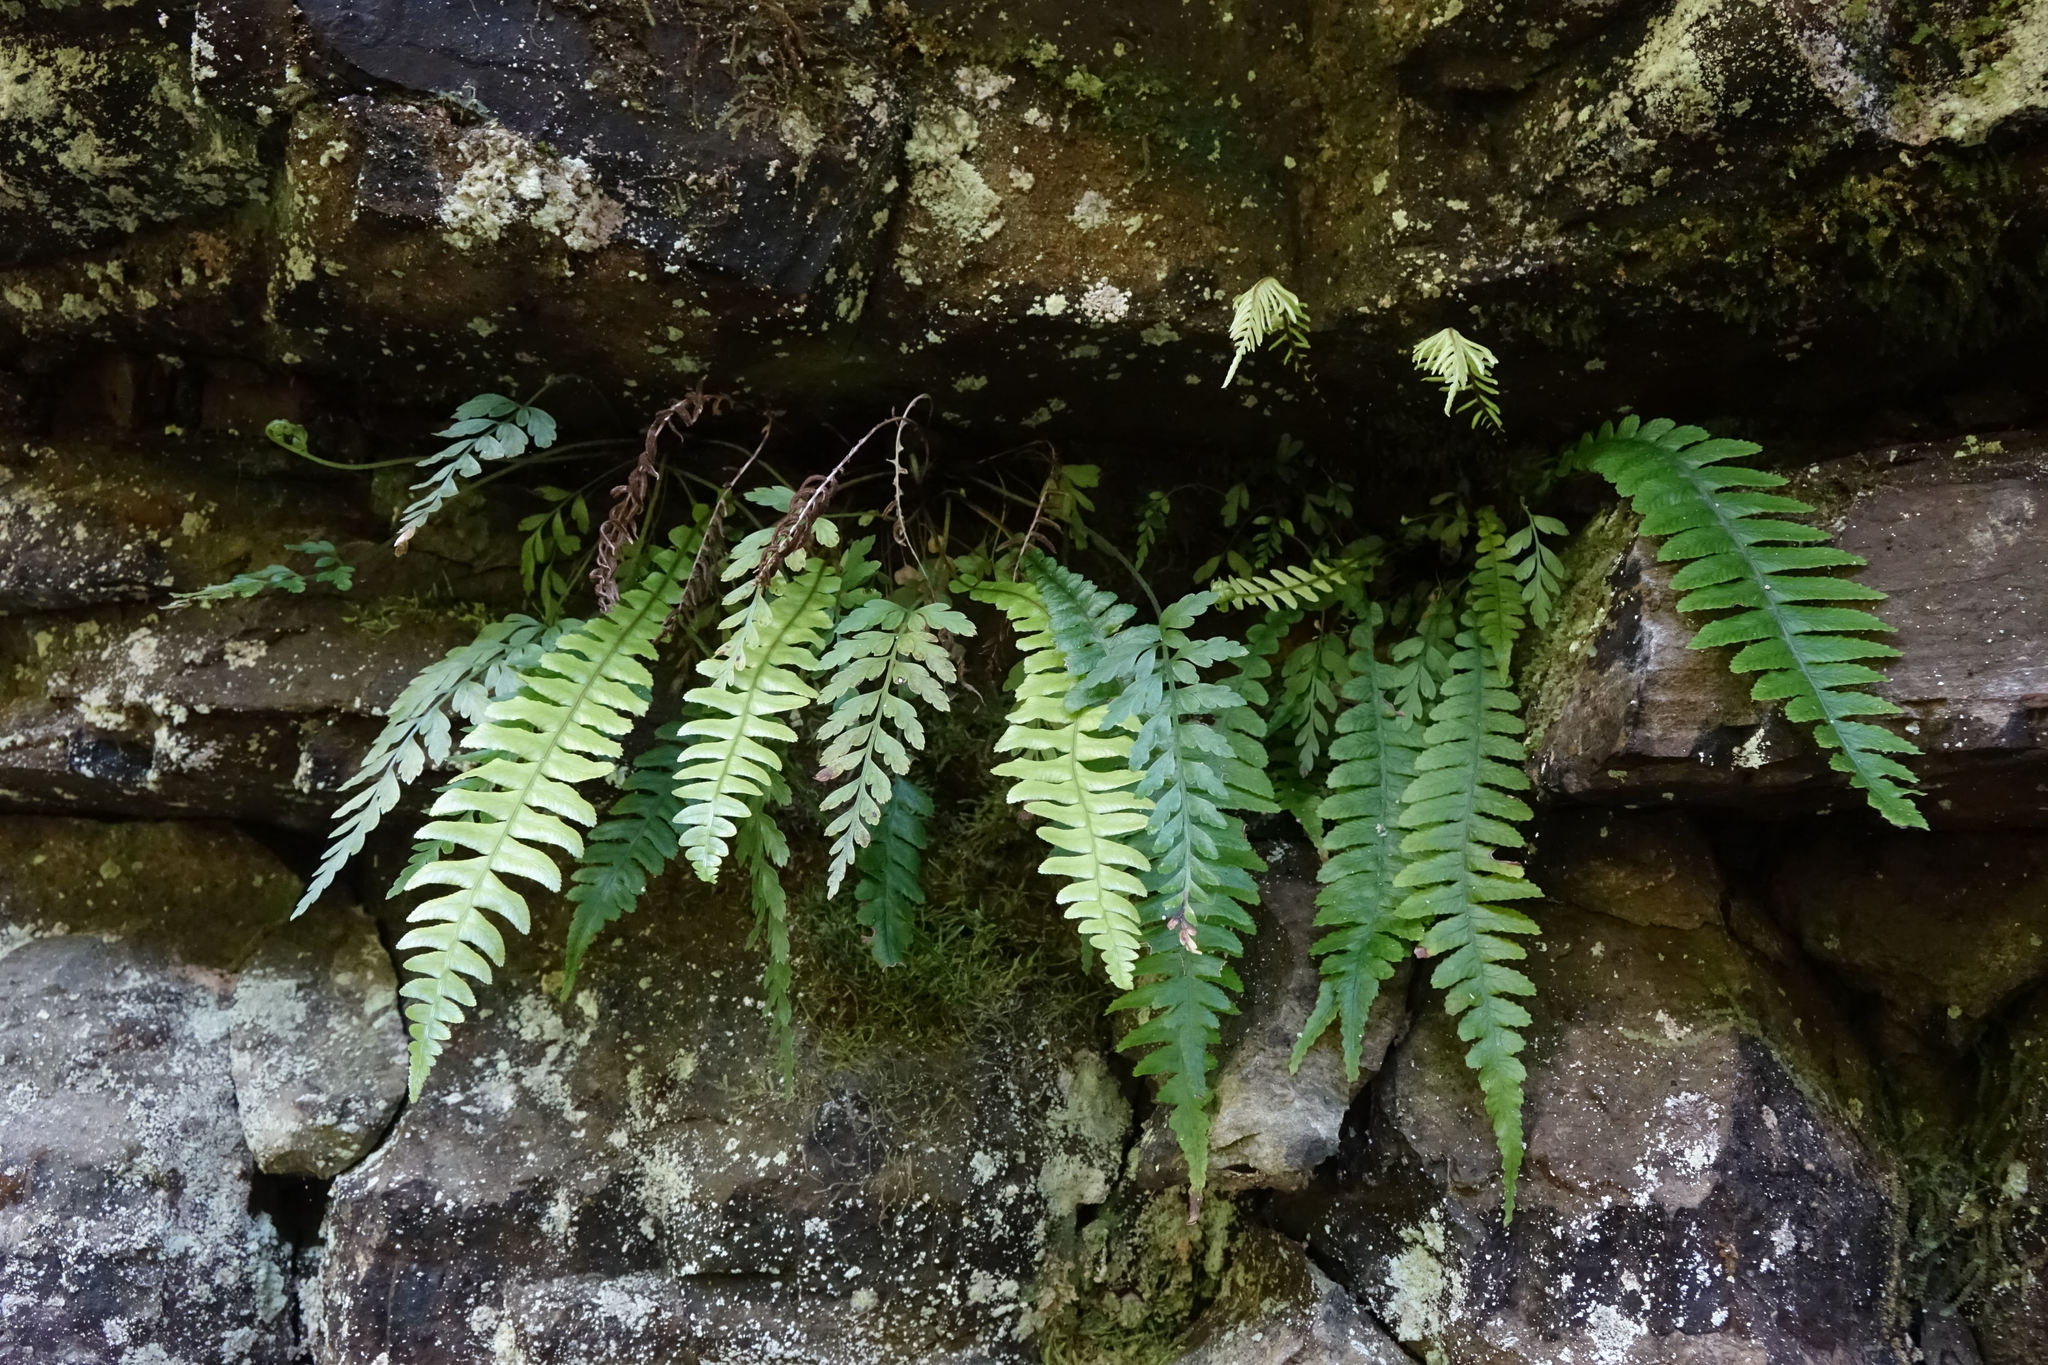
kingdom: Plantae
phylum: Tracheophyta
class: Polypodiopsida
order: Polypodiales
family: Blechnaceae
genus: Austroblechnum
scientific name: Austroblechnum lanceolatum
